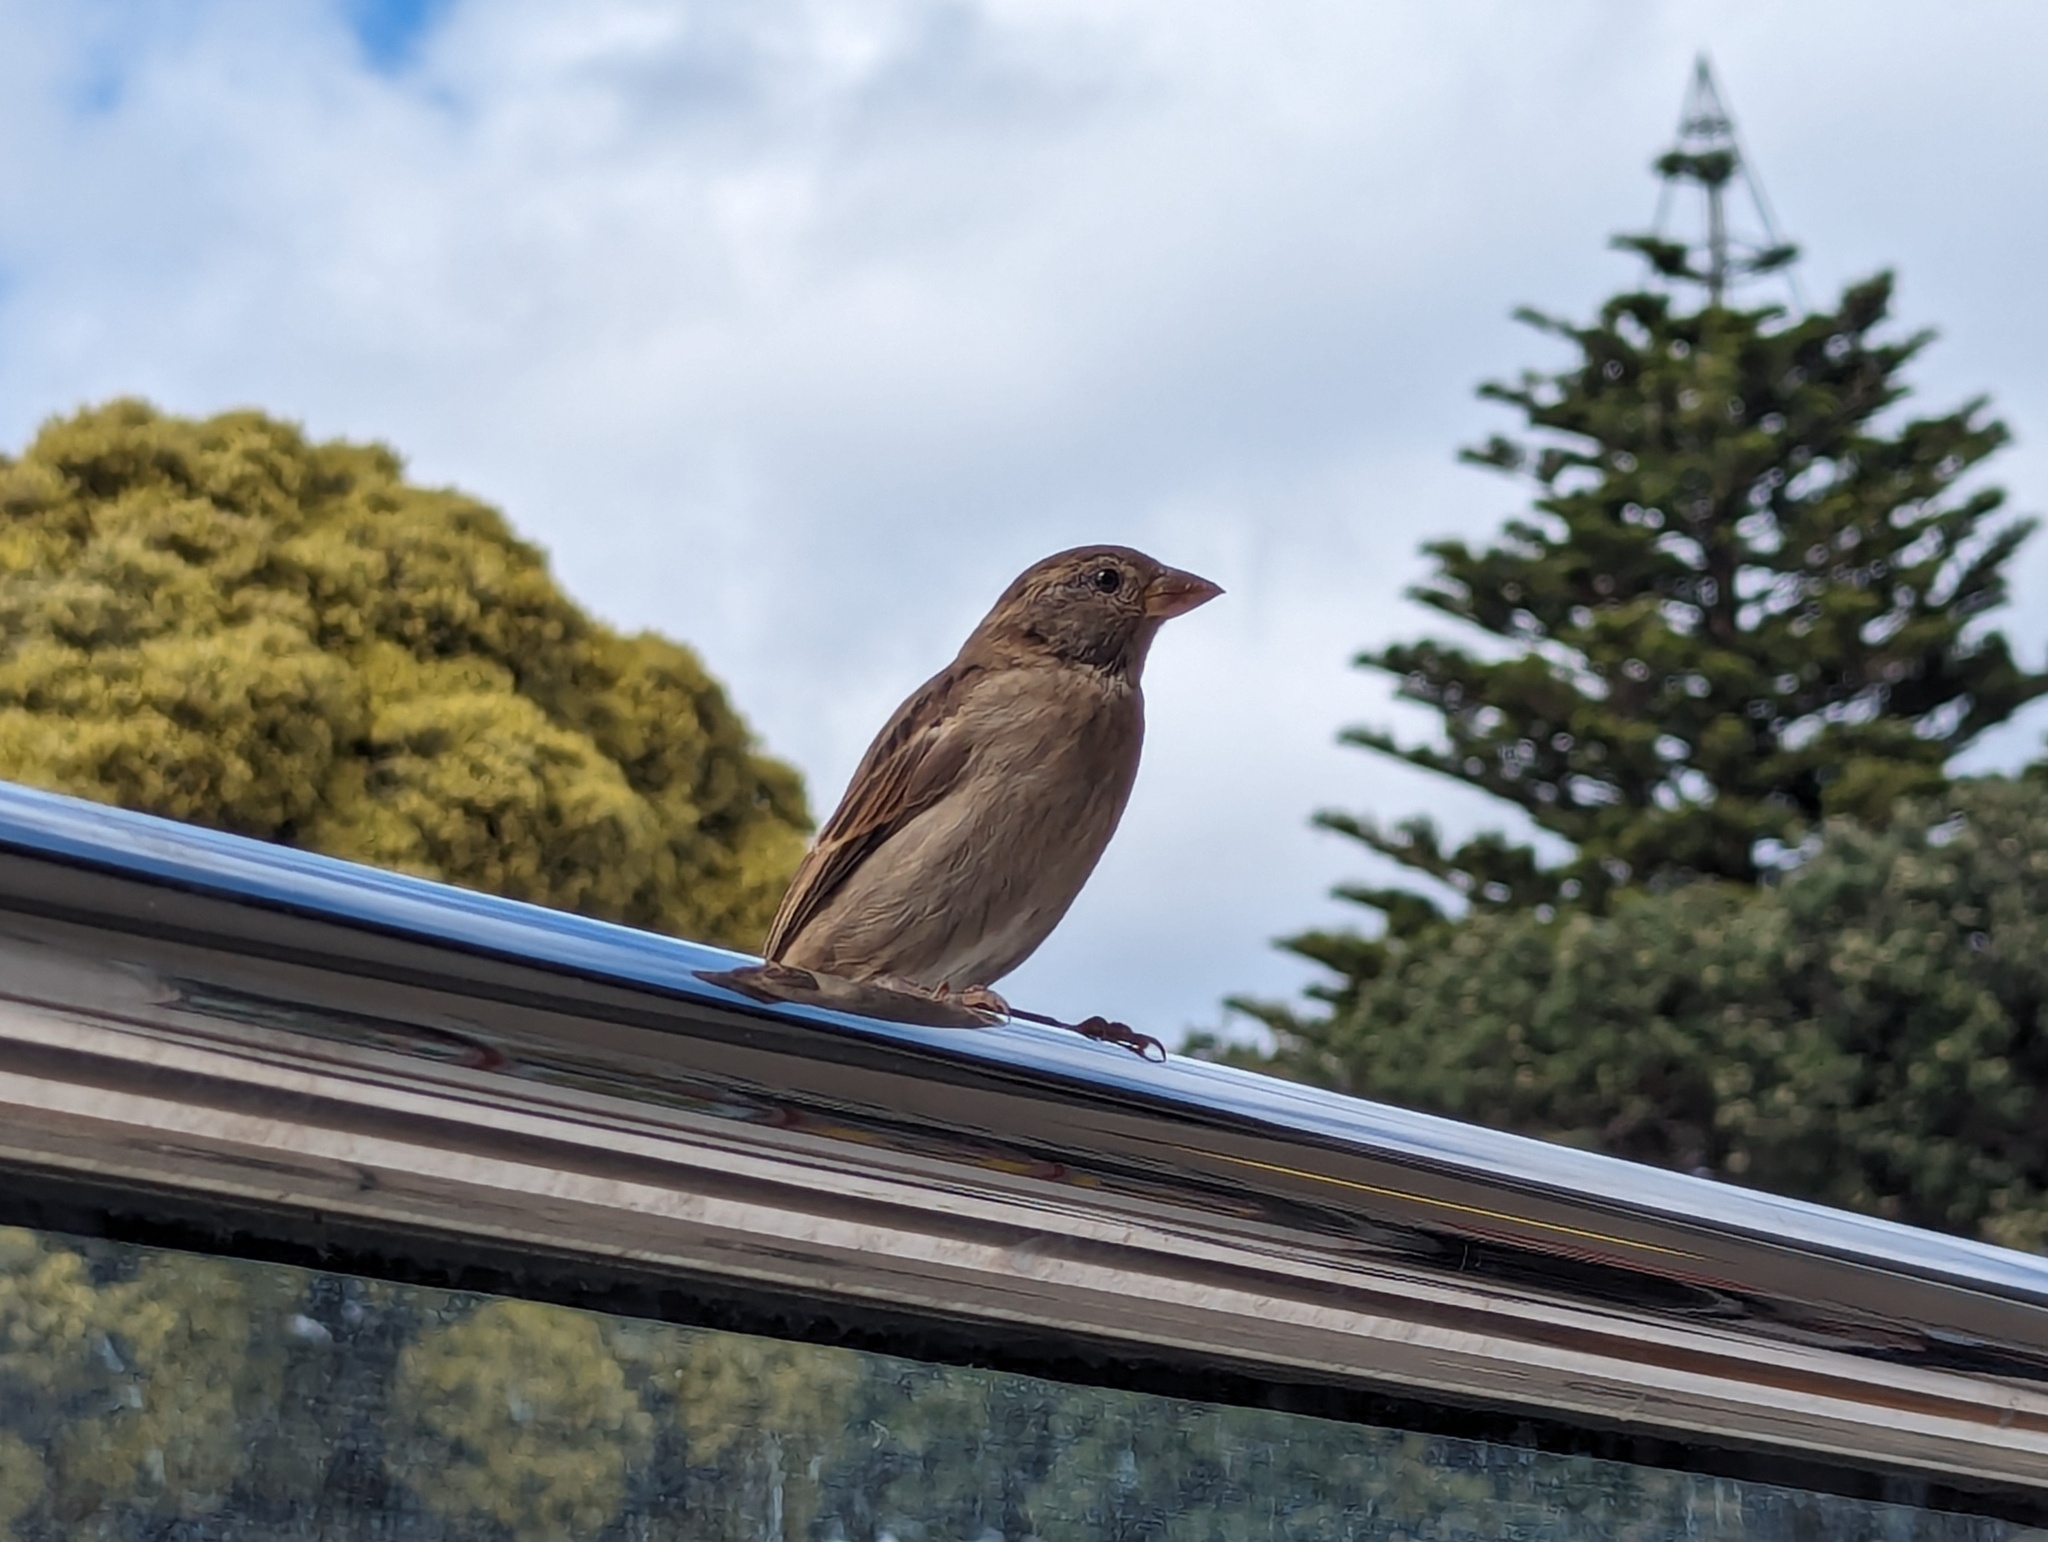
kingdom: Animalia
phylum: Chordata
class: Aves
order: Passeriformes
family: Passeridae
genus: Passer
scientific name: Passer domesticus
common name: House sparrow
